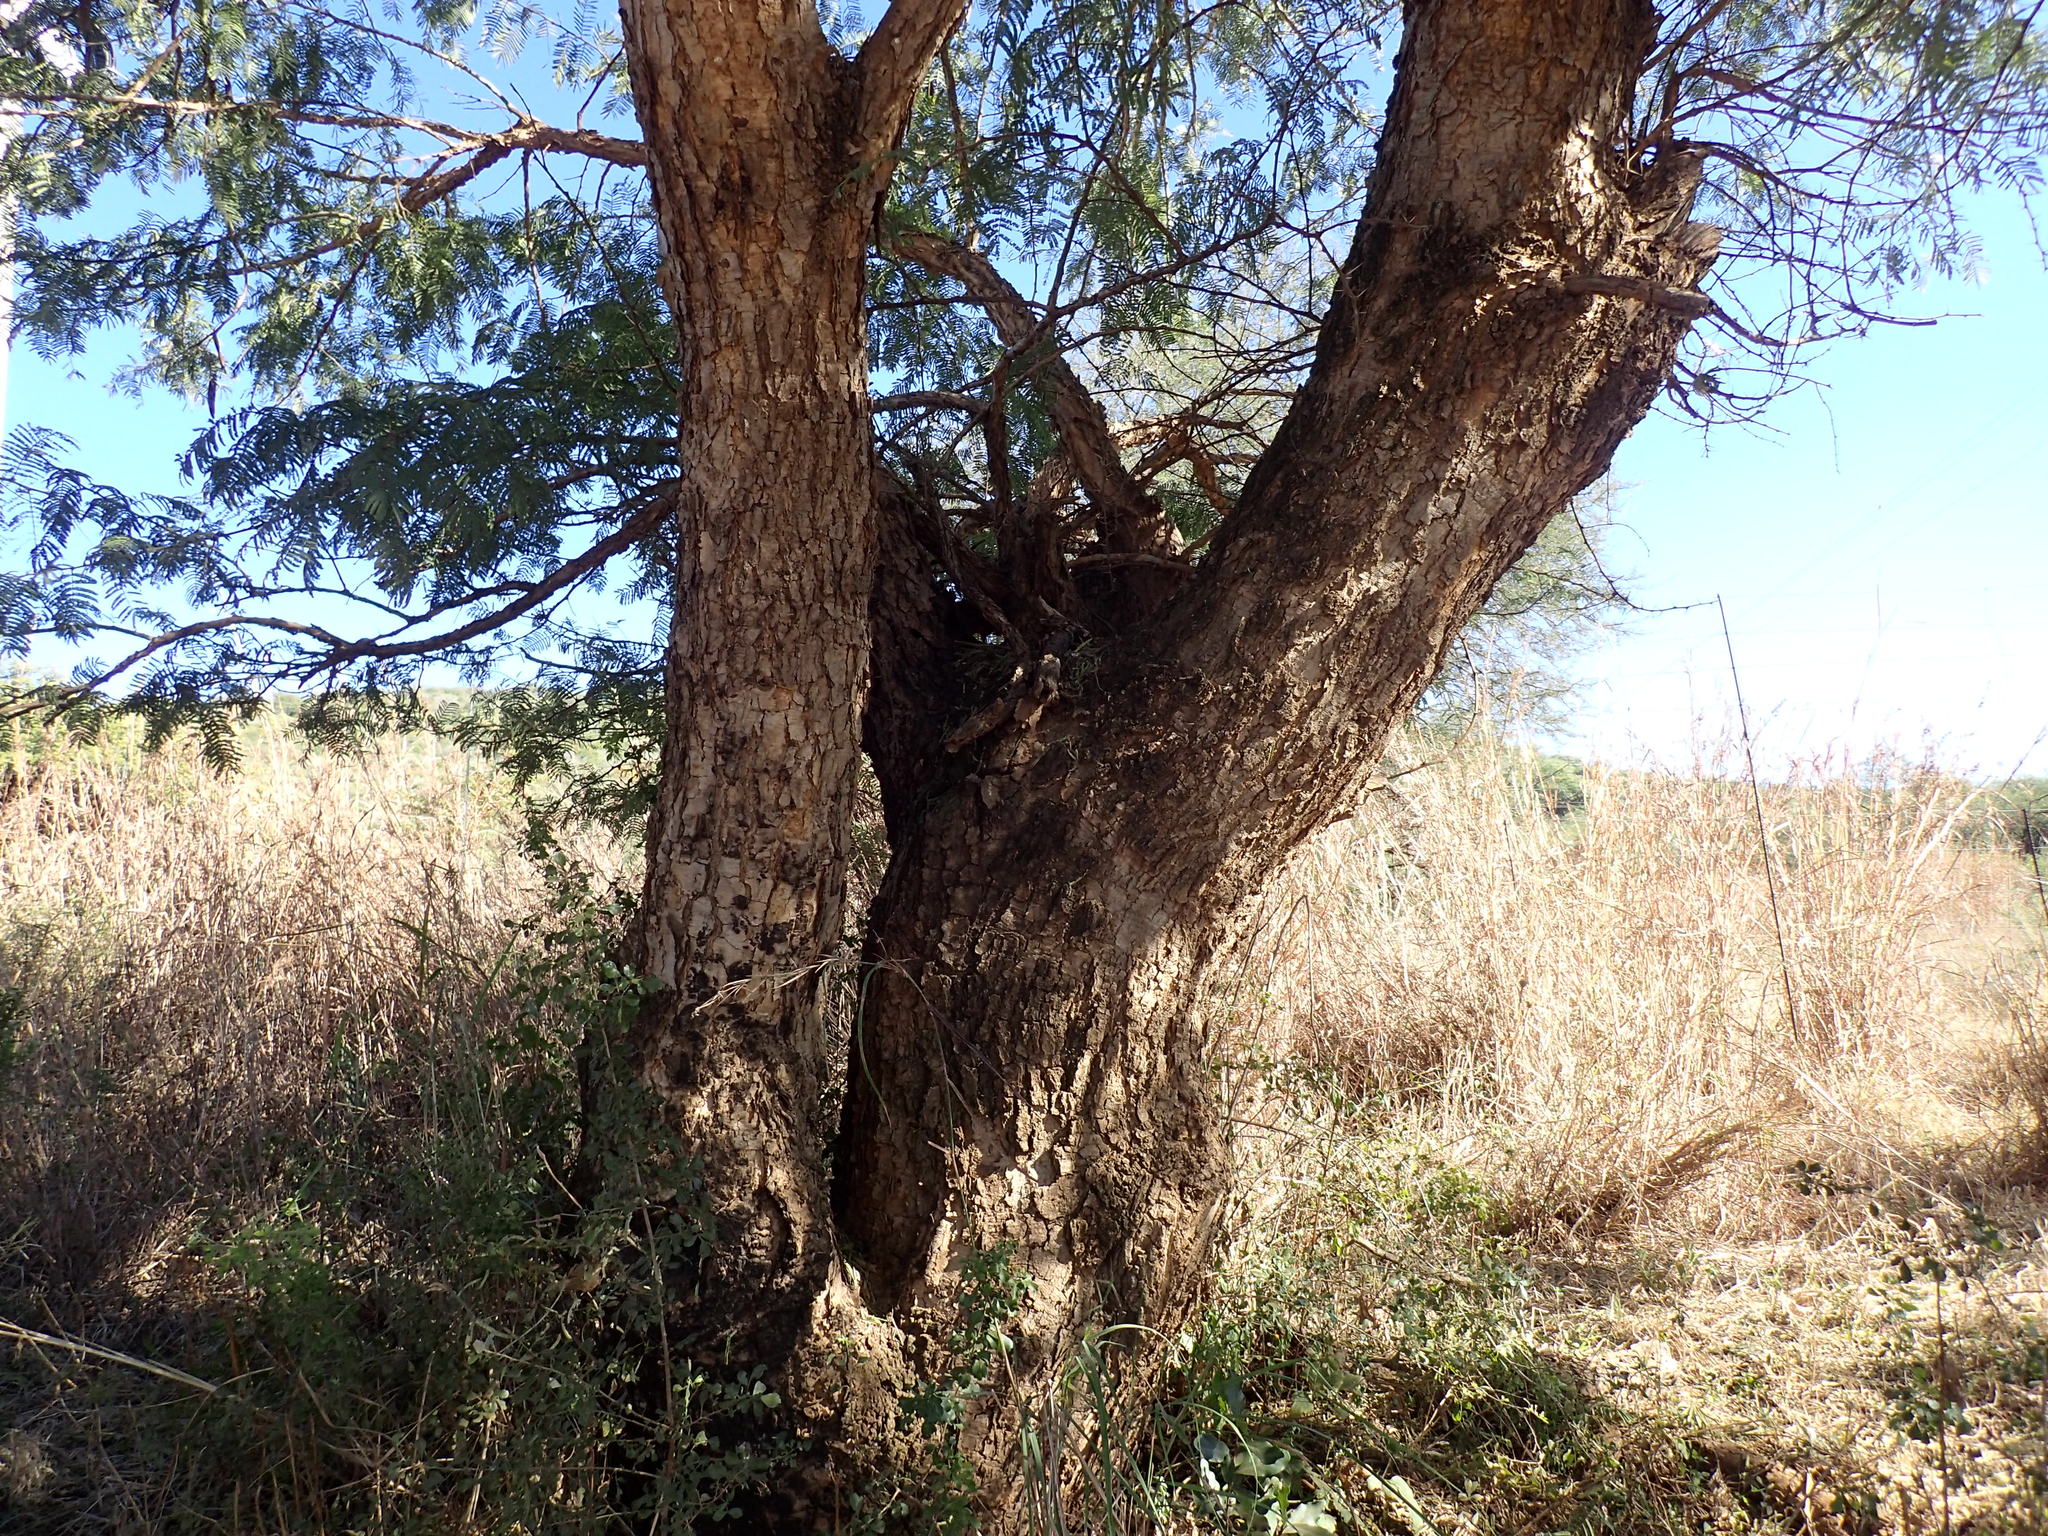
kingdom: Plantae
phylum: Tracheophyta
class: Magnoliopsida
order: Fabales
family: Fabaceae
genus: Vachellia
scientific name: Vachellia sieberiana
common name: Flat-topped thorn
